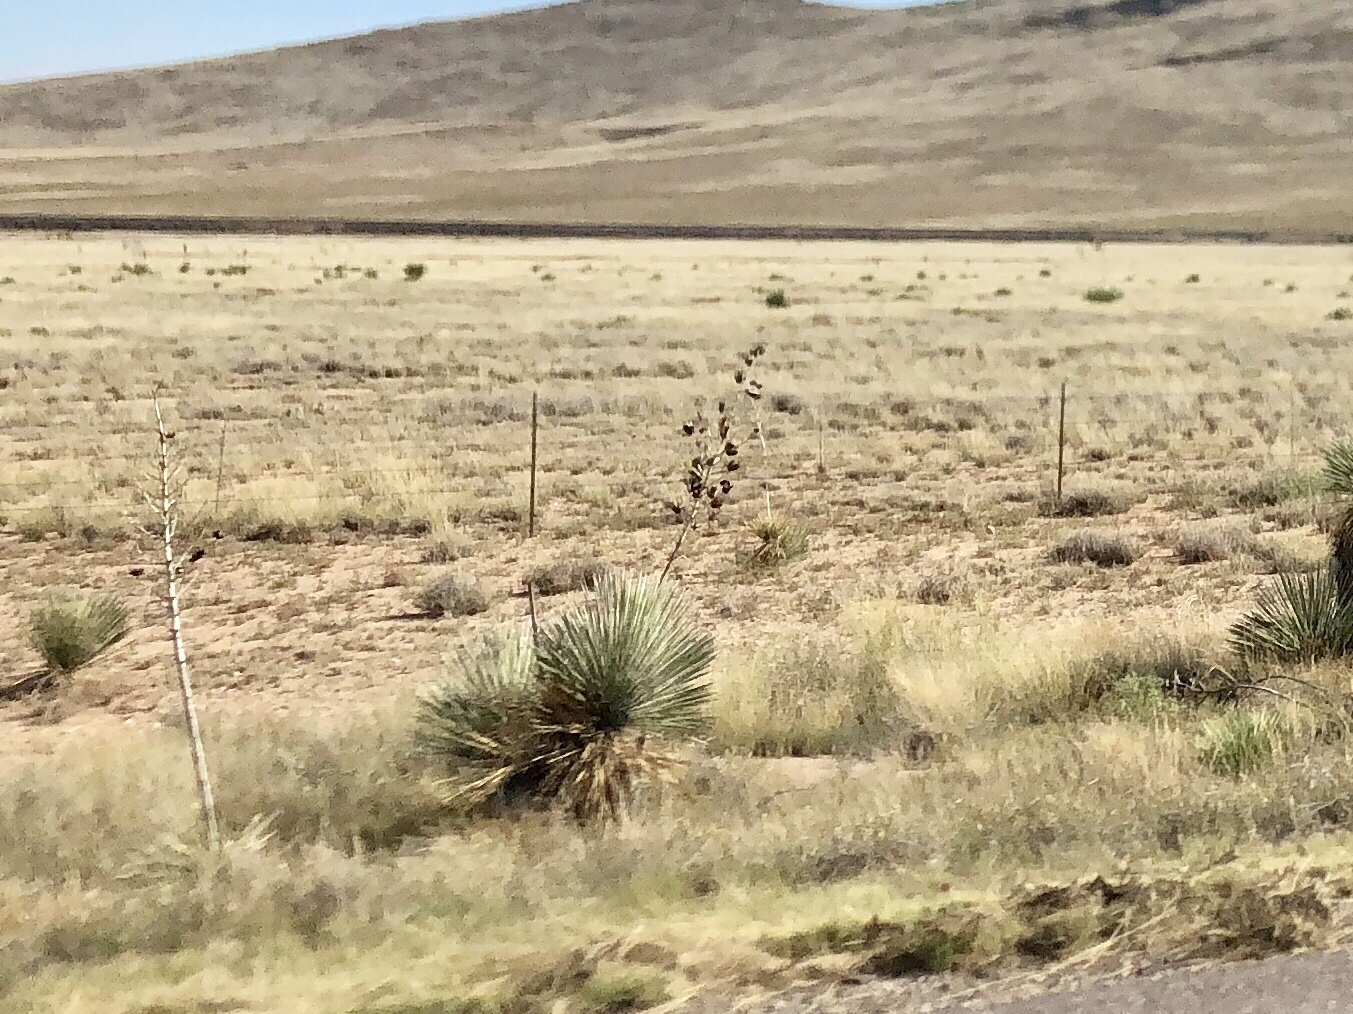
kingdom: Plantae
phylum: Tracheophyta
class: Liliopsida
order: Asparagales
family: Asparagaceae
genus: Yucca
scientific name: Yucca elata
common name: Palmella
